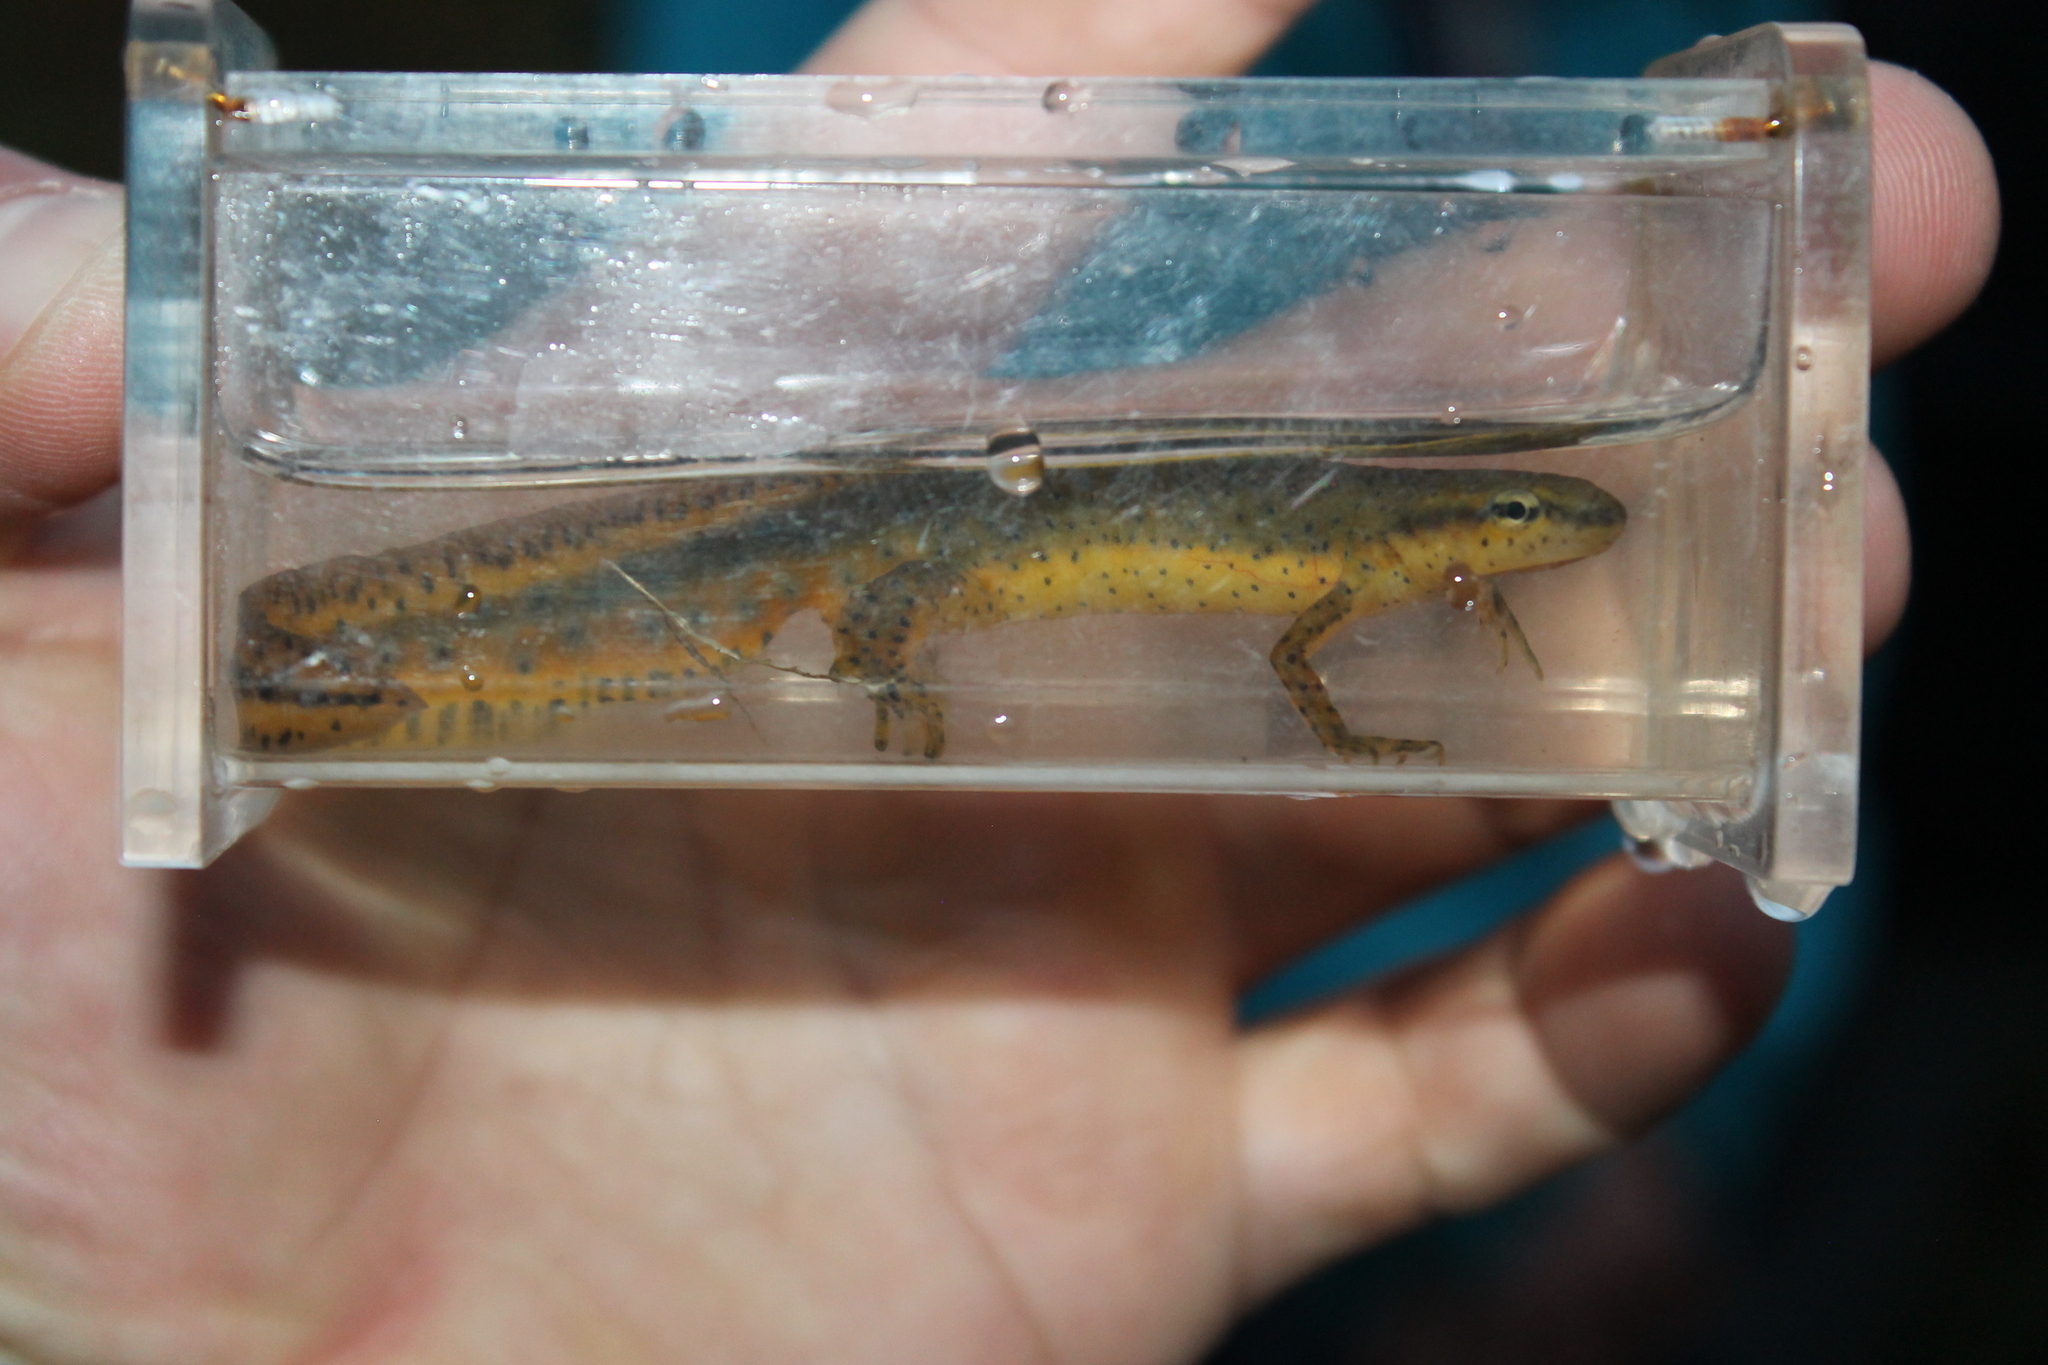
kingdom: Animalia
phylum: Chordata
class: Amphibia
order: Caudata
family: Salamandridae
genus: Notophthalmus
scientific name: Notophthalmus viridescens
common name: Eastern newt
